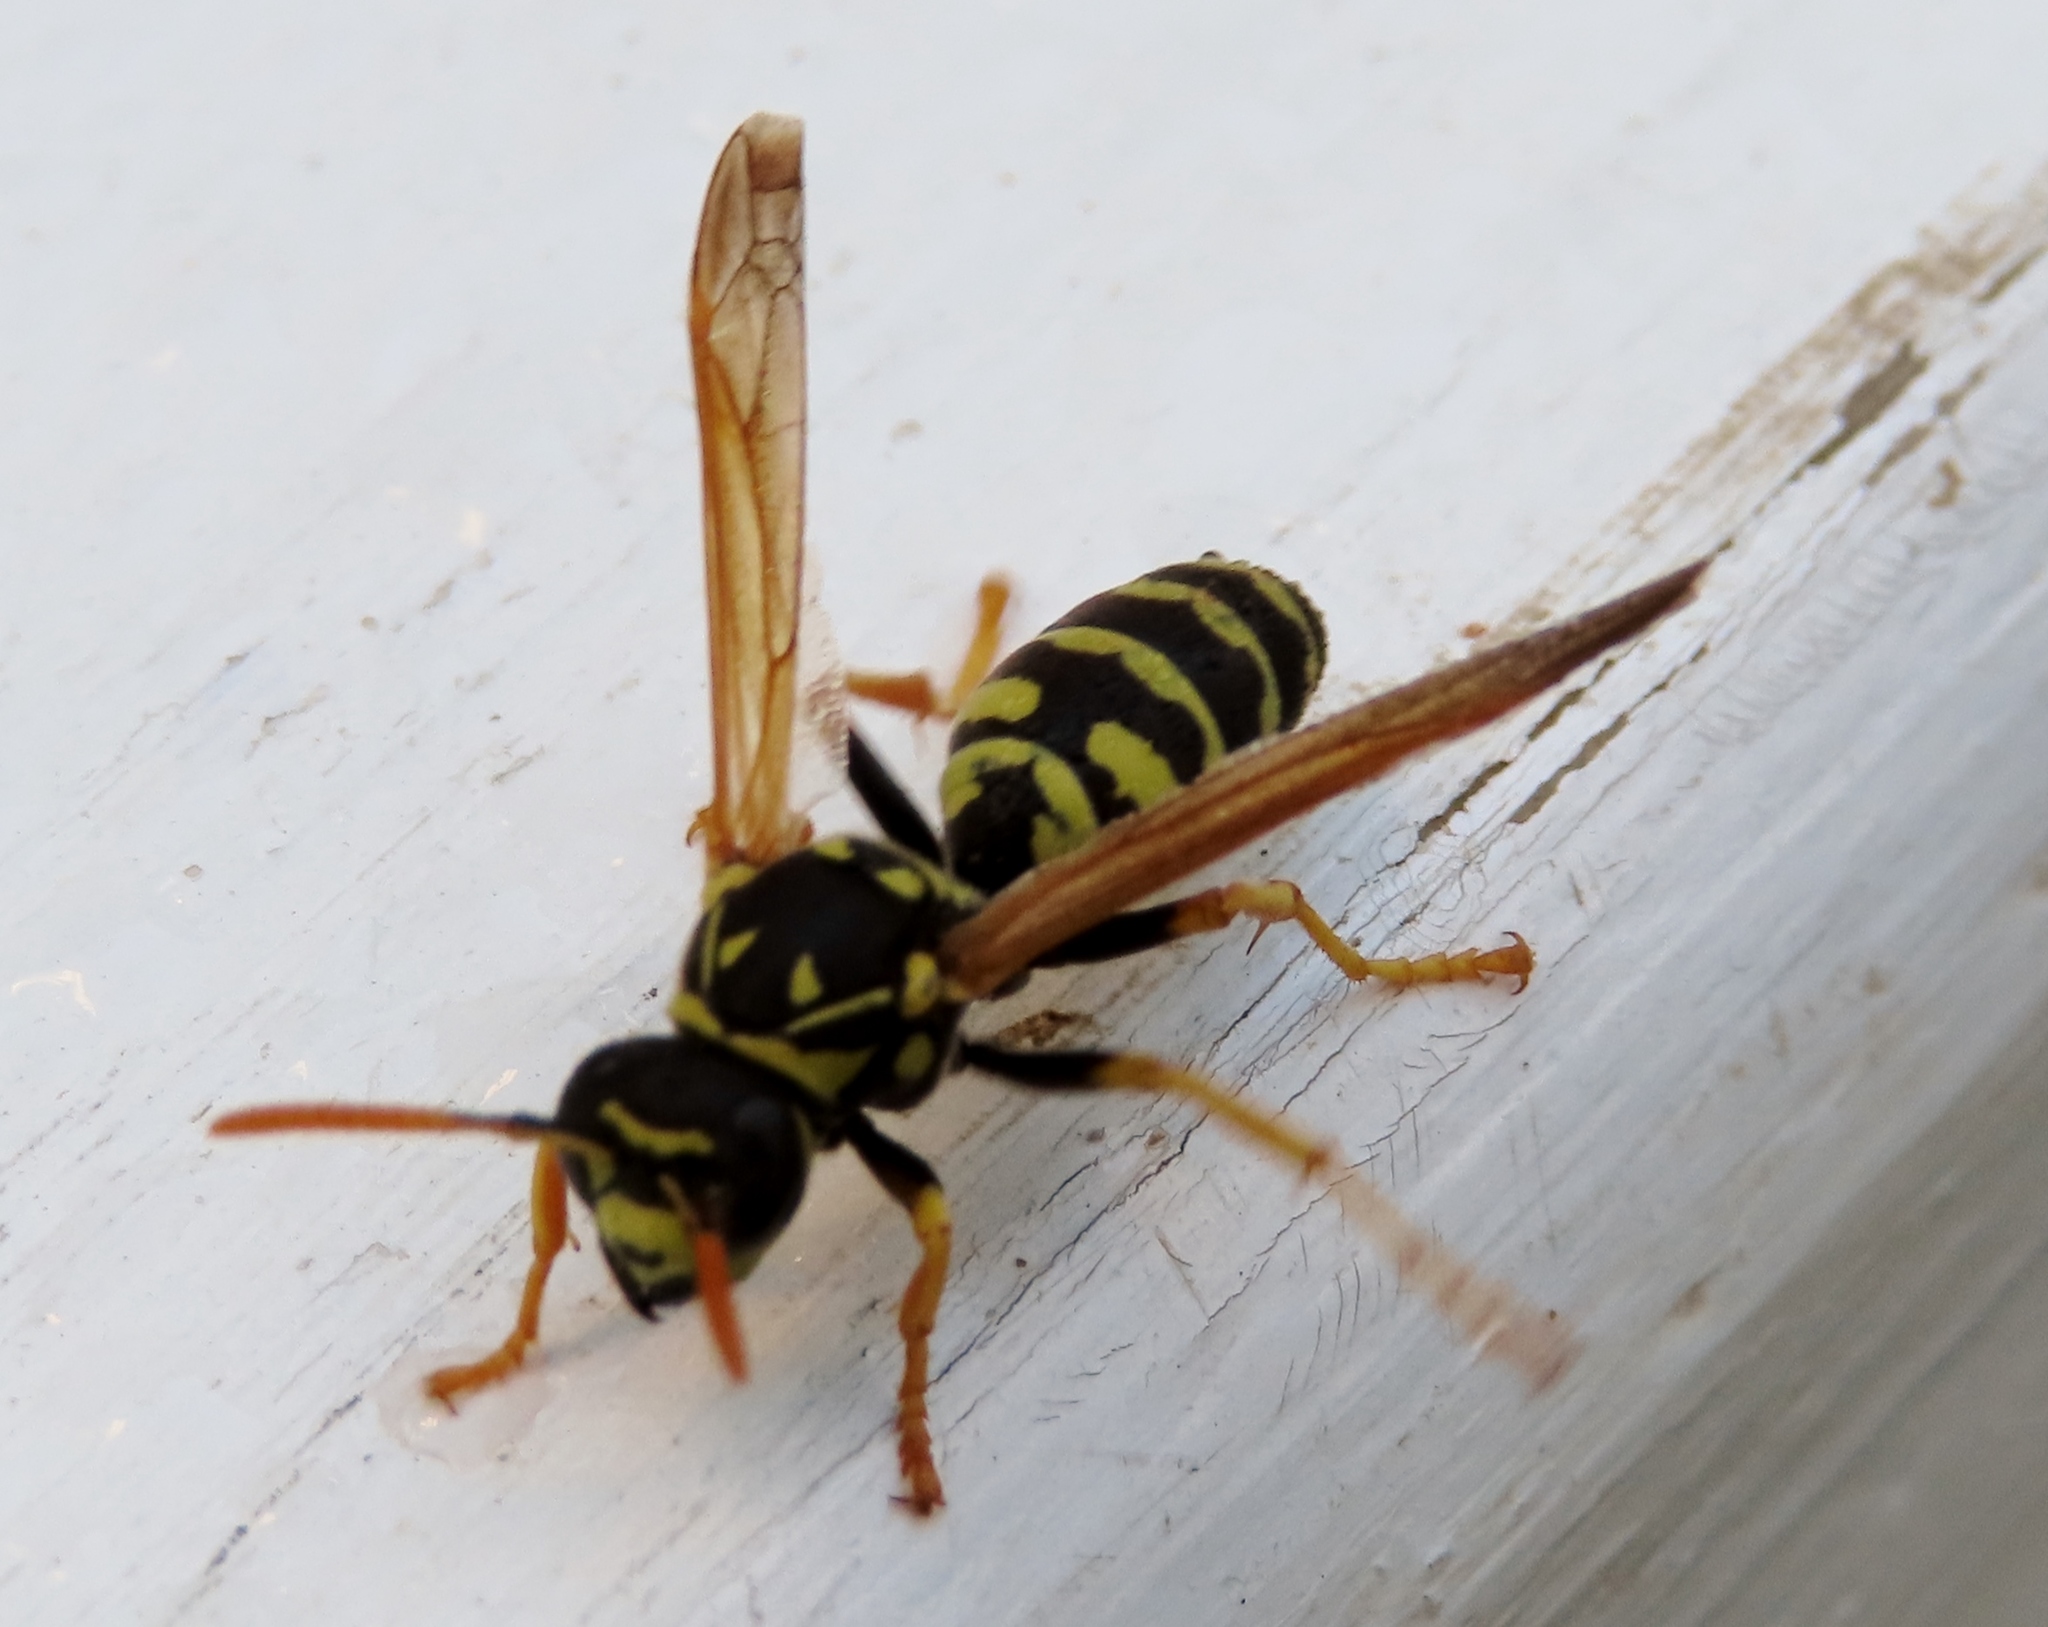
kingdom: Animalia
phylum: Arthropoda
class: Insecta
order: Hymenoptera
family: Eumenidae
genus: Polistes
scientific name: Polistes dominula
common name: Paper wasp
